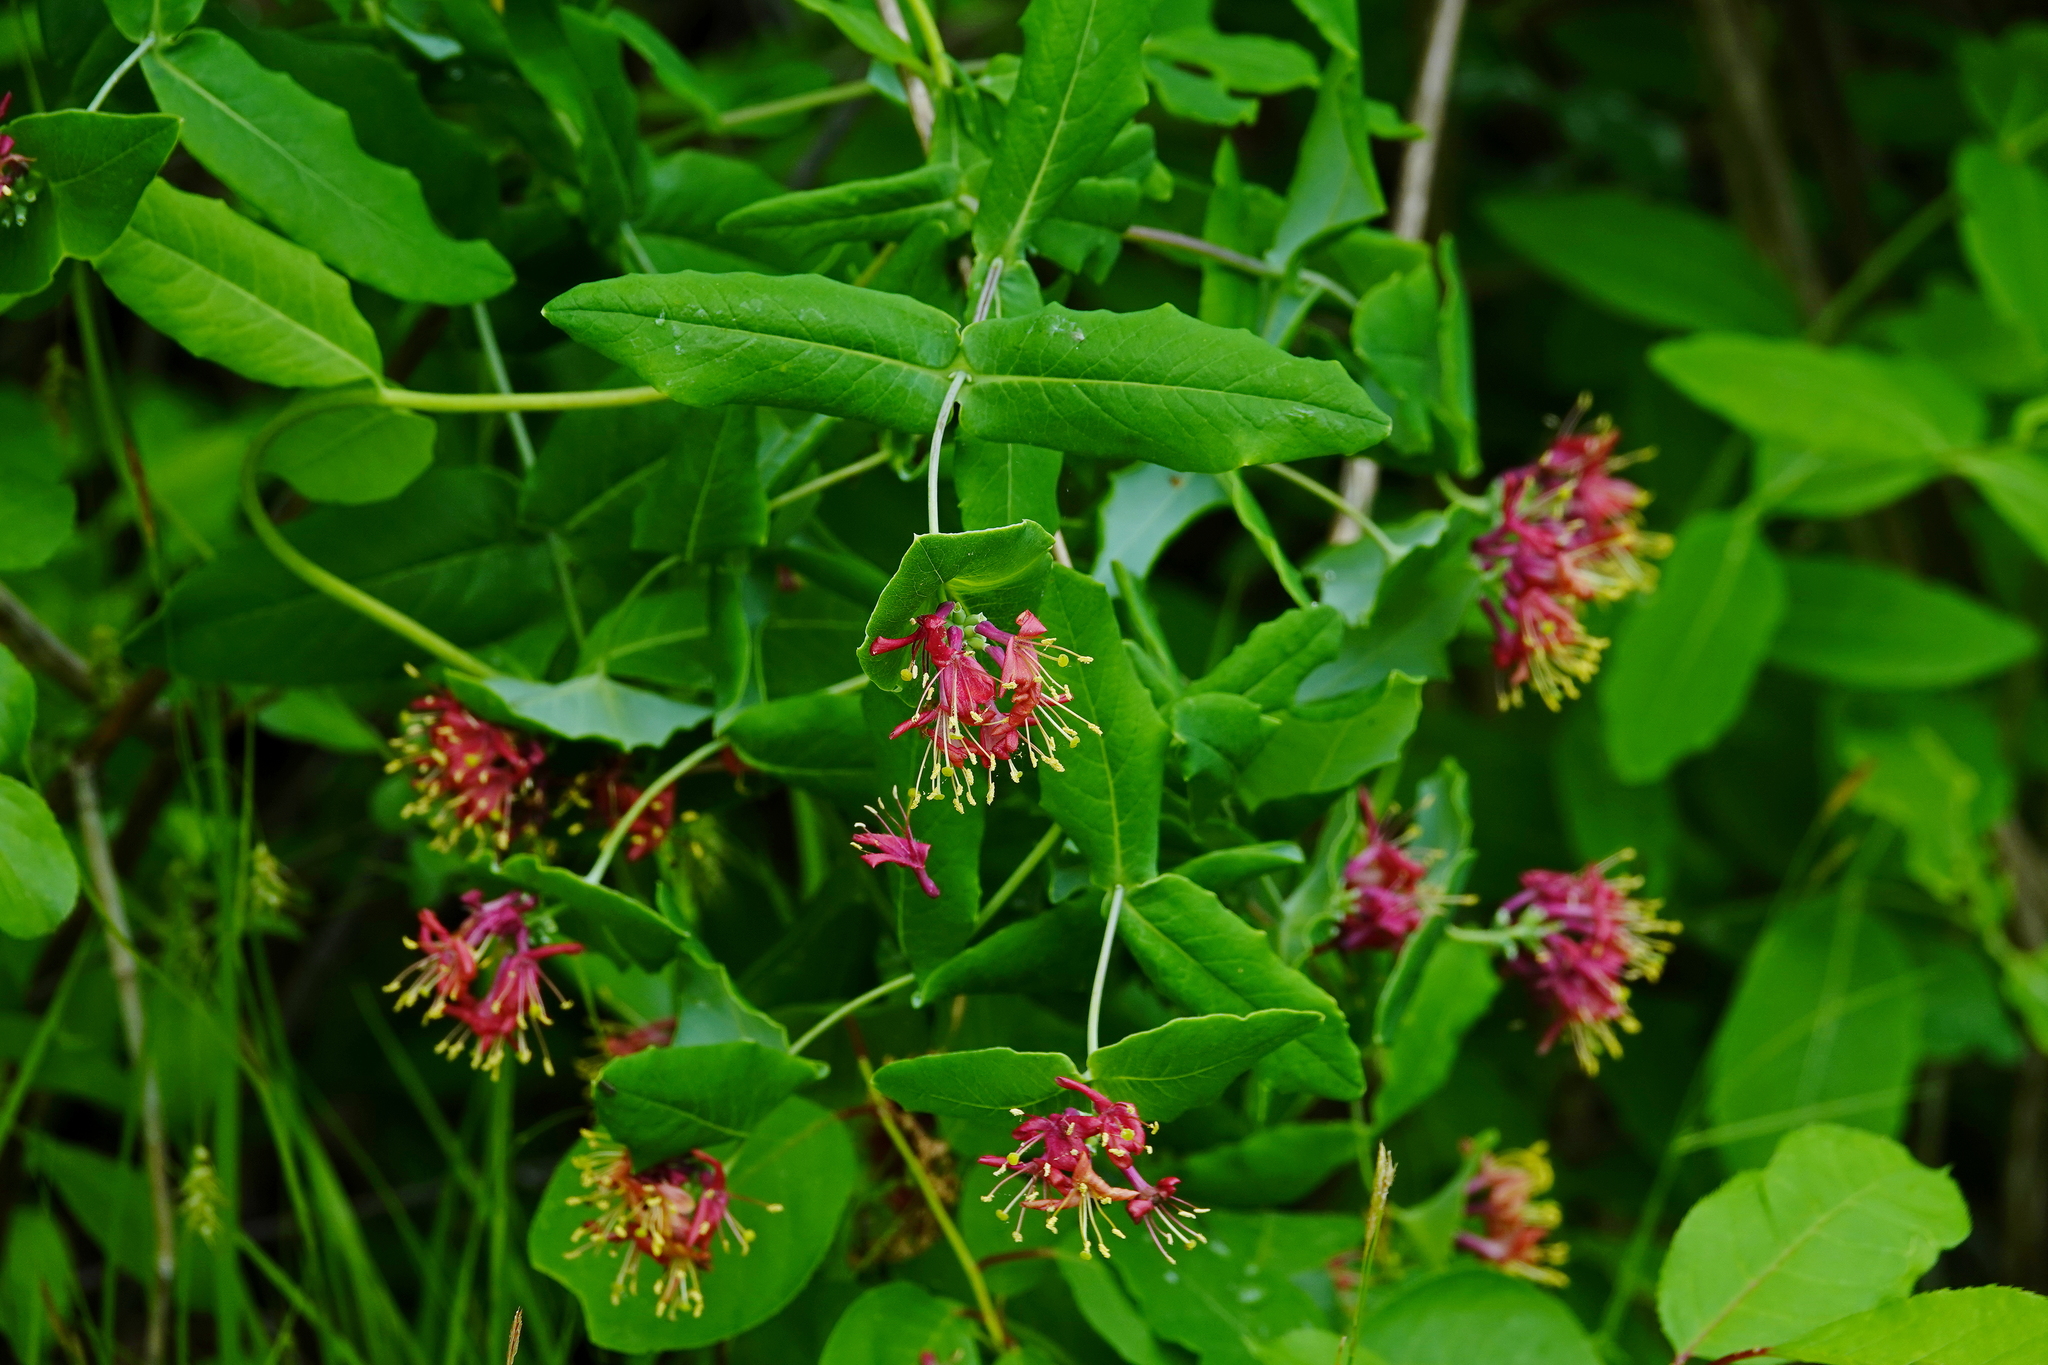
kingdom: Plantae
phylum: Tracheophyta
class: Magnoliopsida
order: Dipsacales
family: Caprifoliaceae
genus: Lonicera
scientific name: Lonicera dioica
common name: Limber honeysuckle
